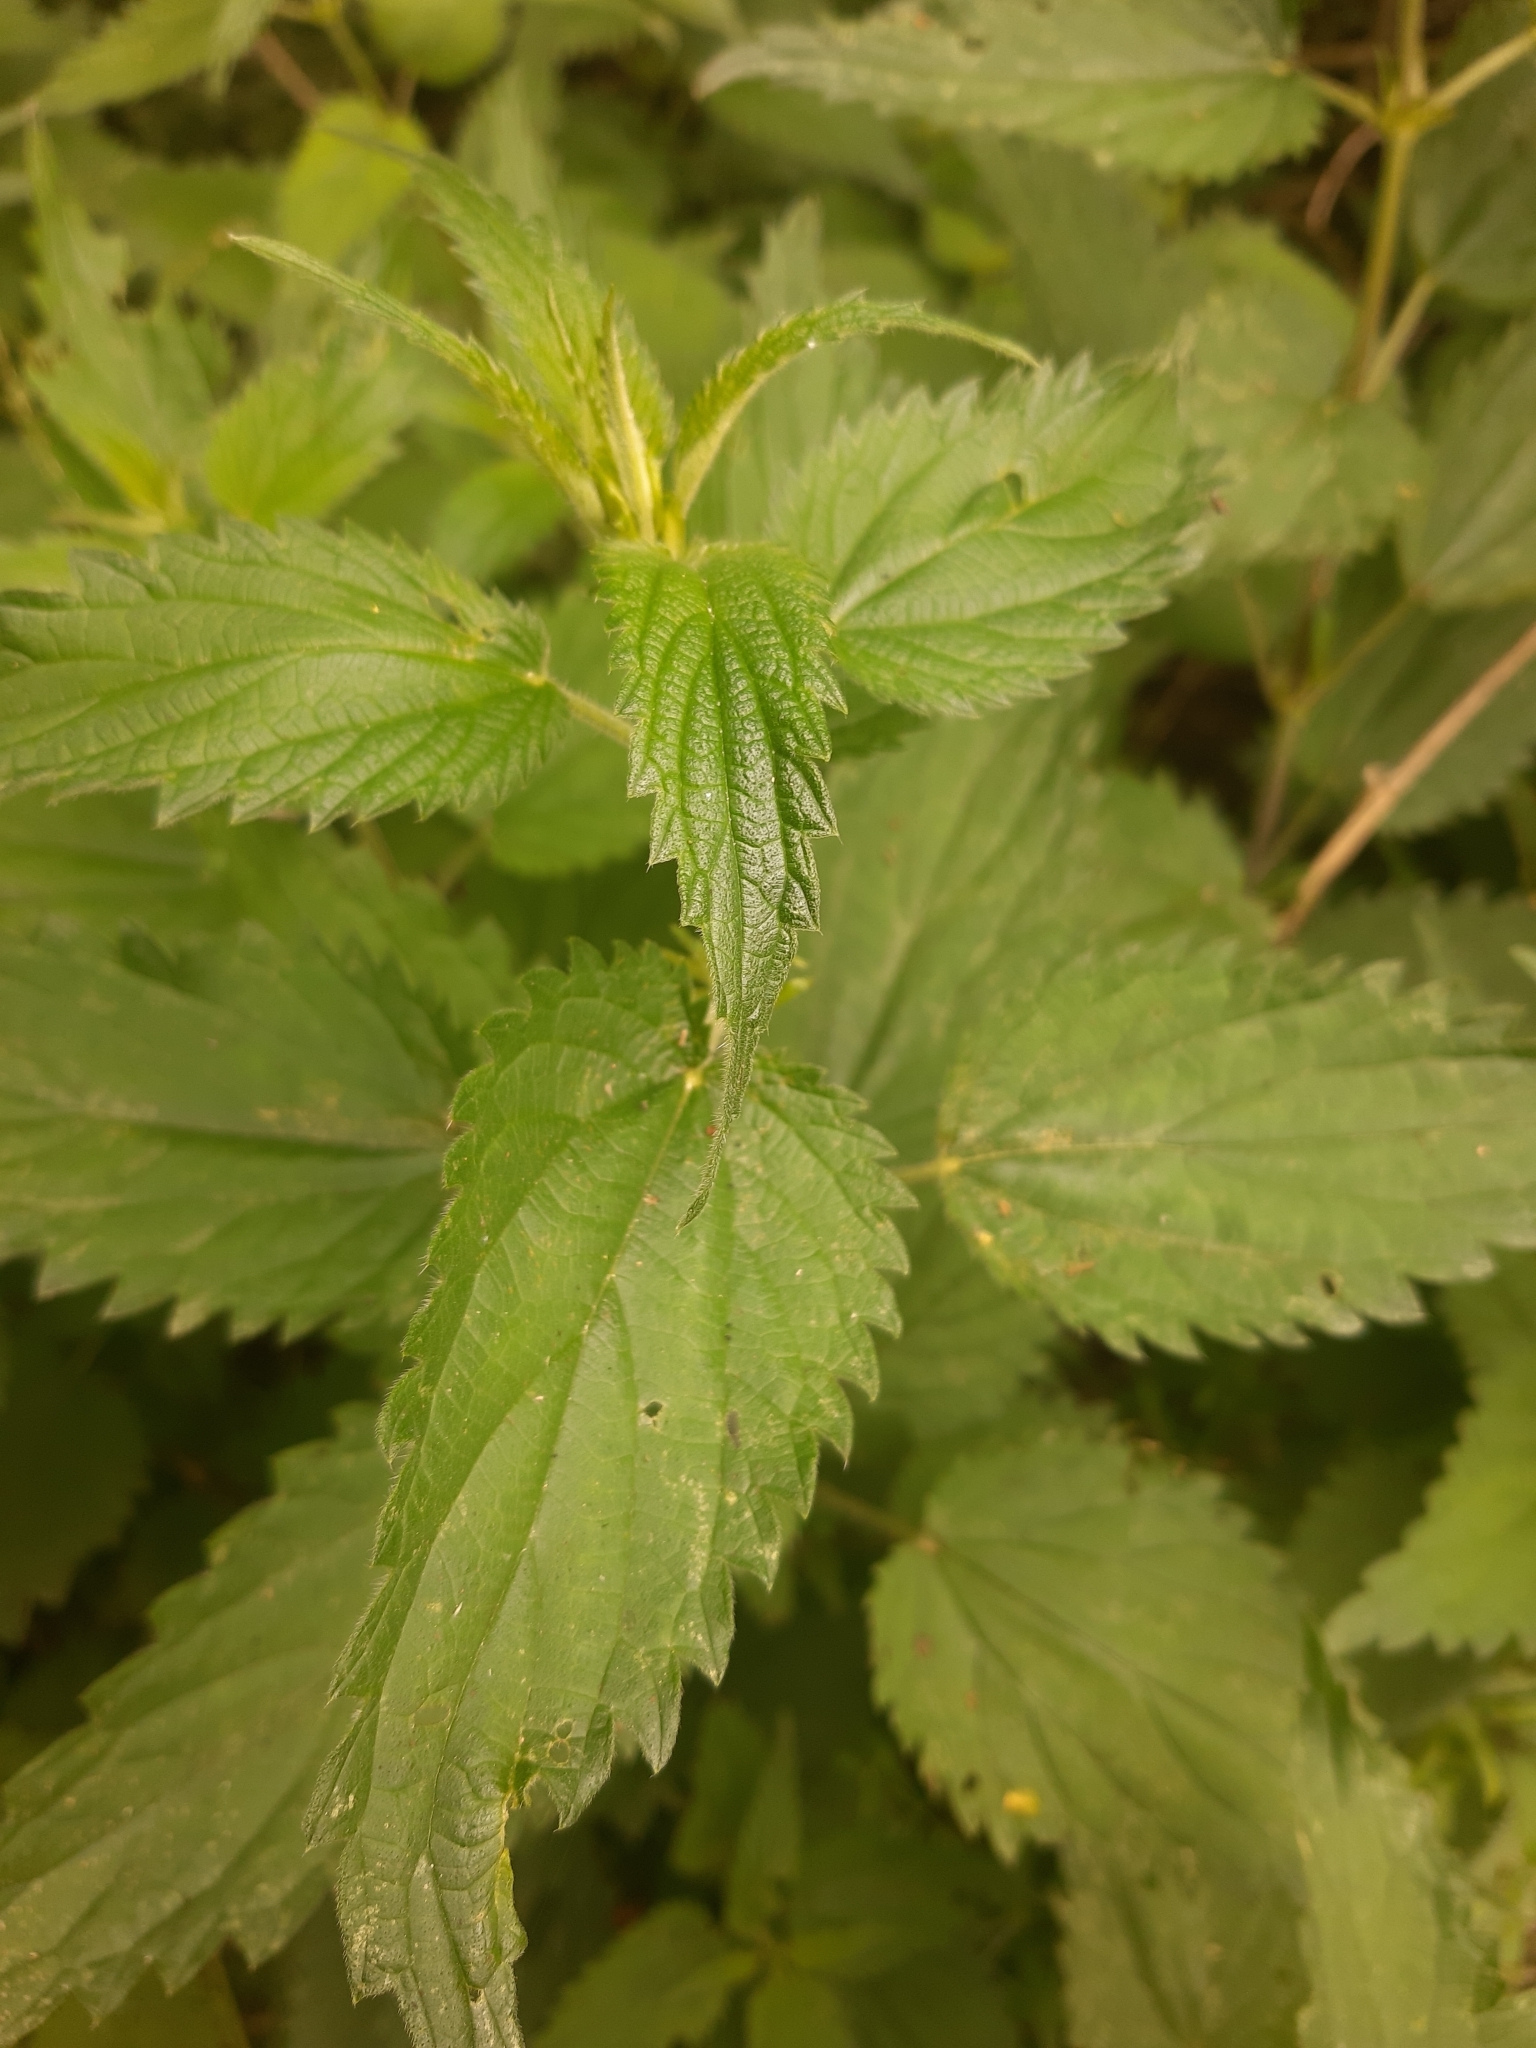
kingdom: Plantae
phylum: Tracheophyta
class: Magnoliopsida
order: Rosales
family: Urticaceae
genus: Urtica
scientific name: Urtica dioica
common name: Common nettle
